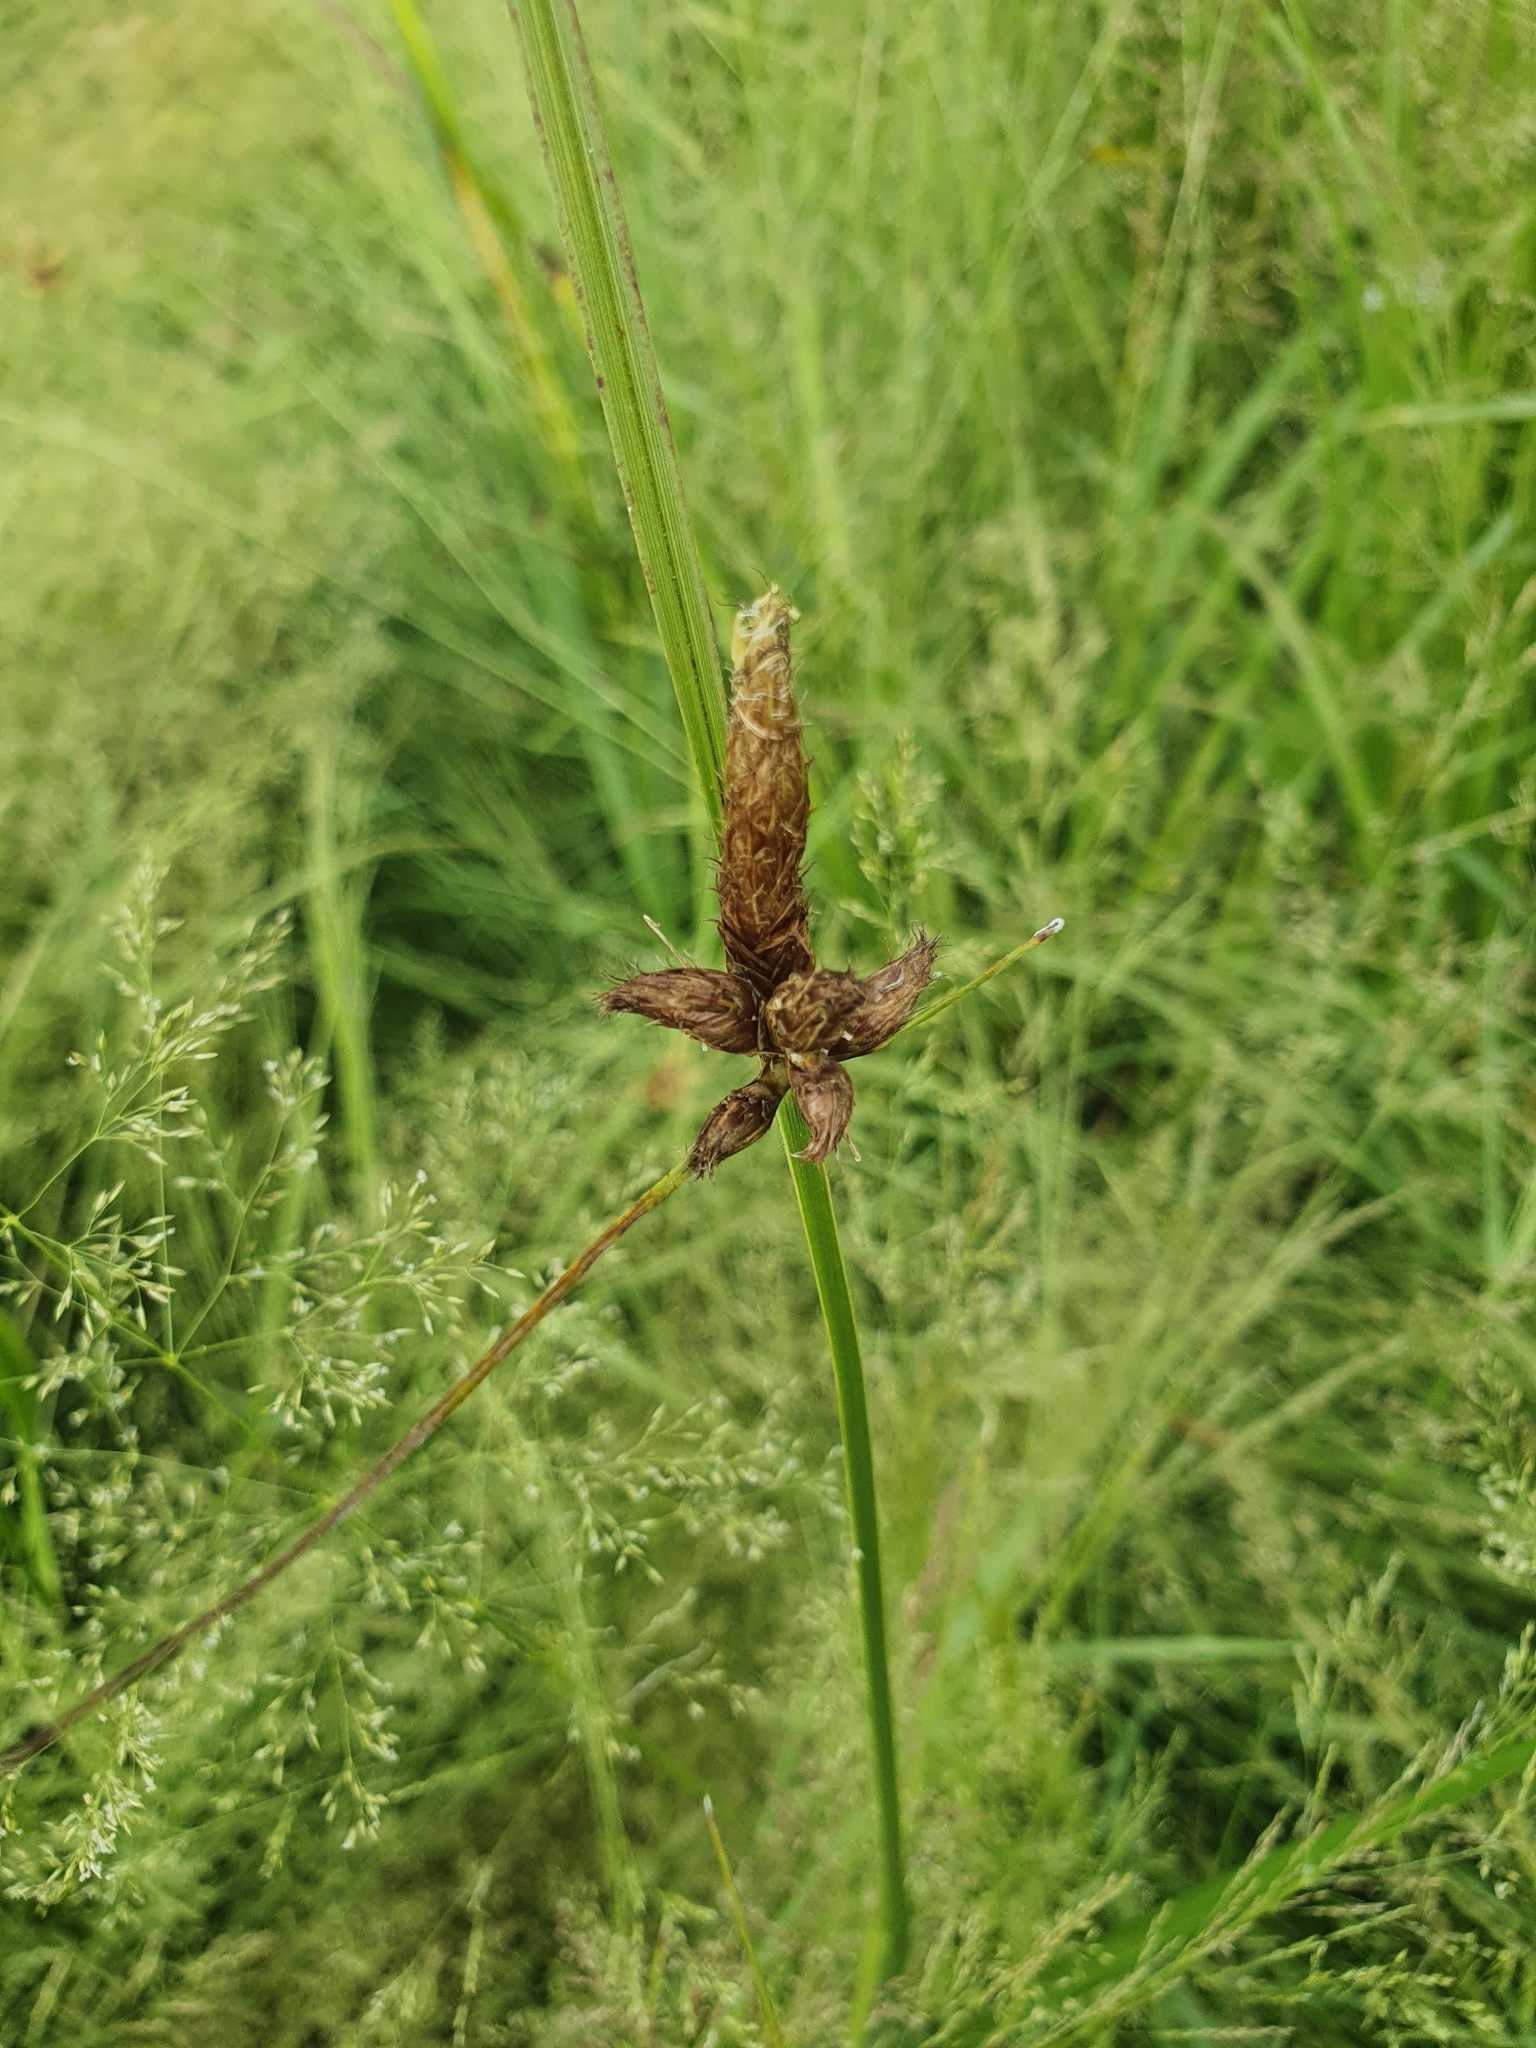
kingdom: Plantae
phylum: Tracheophyta
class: Liliopsida
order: Poales
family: Cyperaceae
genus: Bolboschoenus
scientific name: Bolboschoenus maritimus
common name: Sea club-rush
